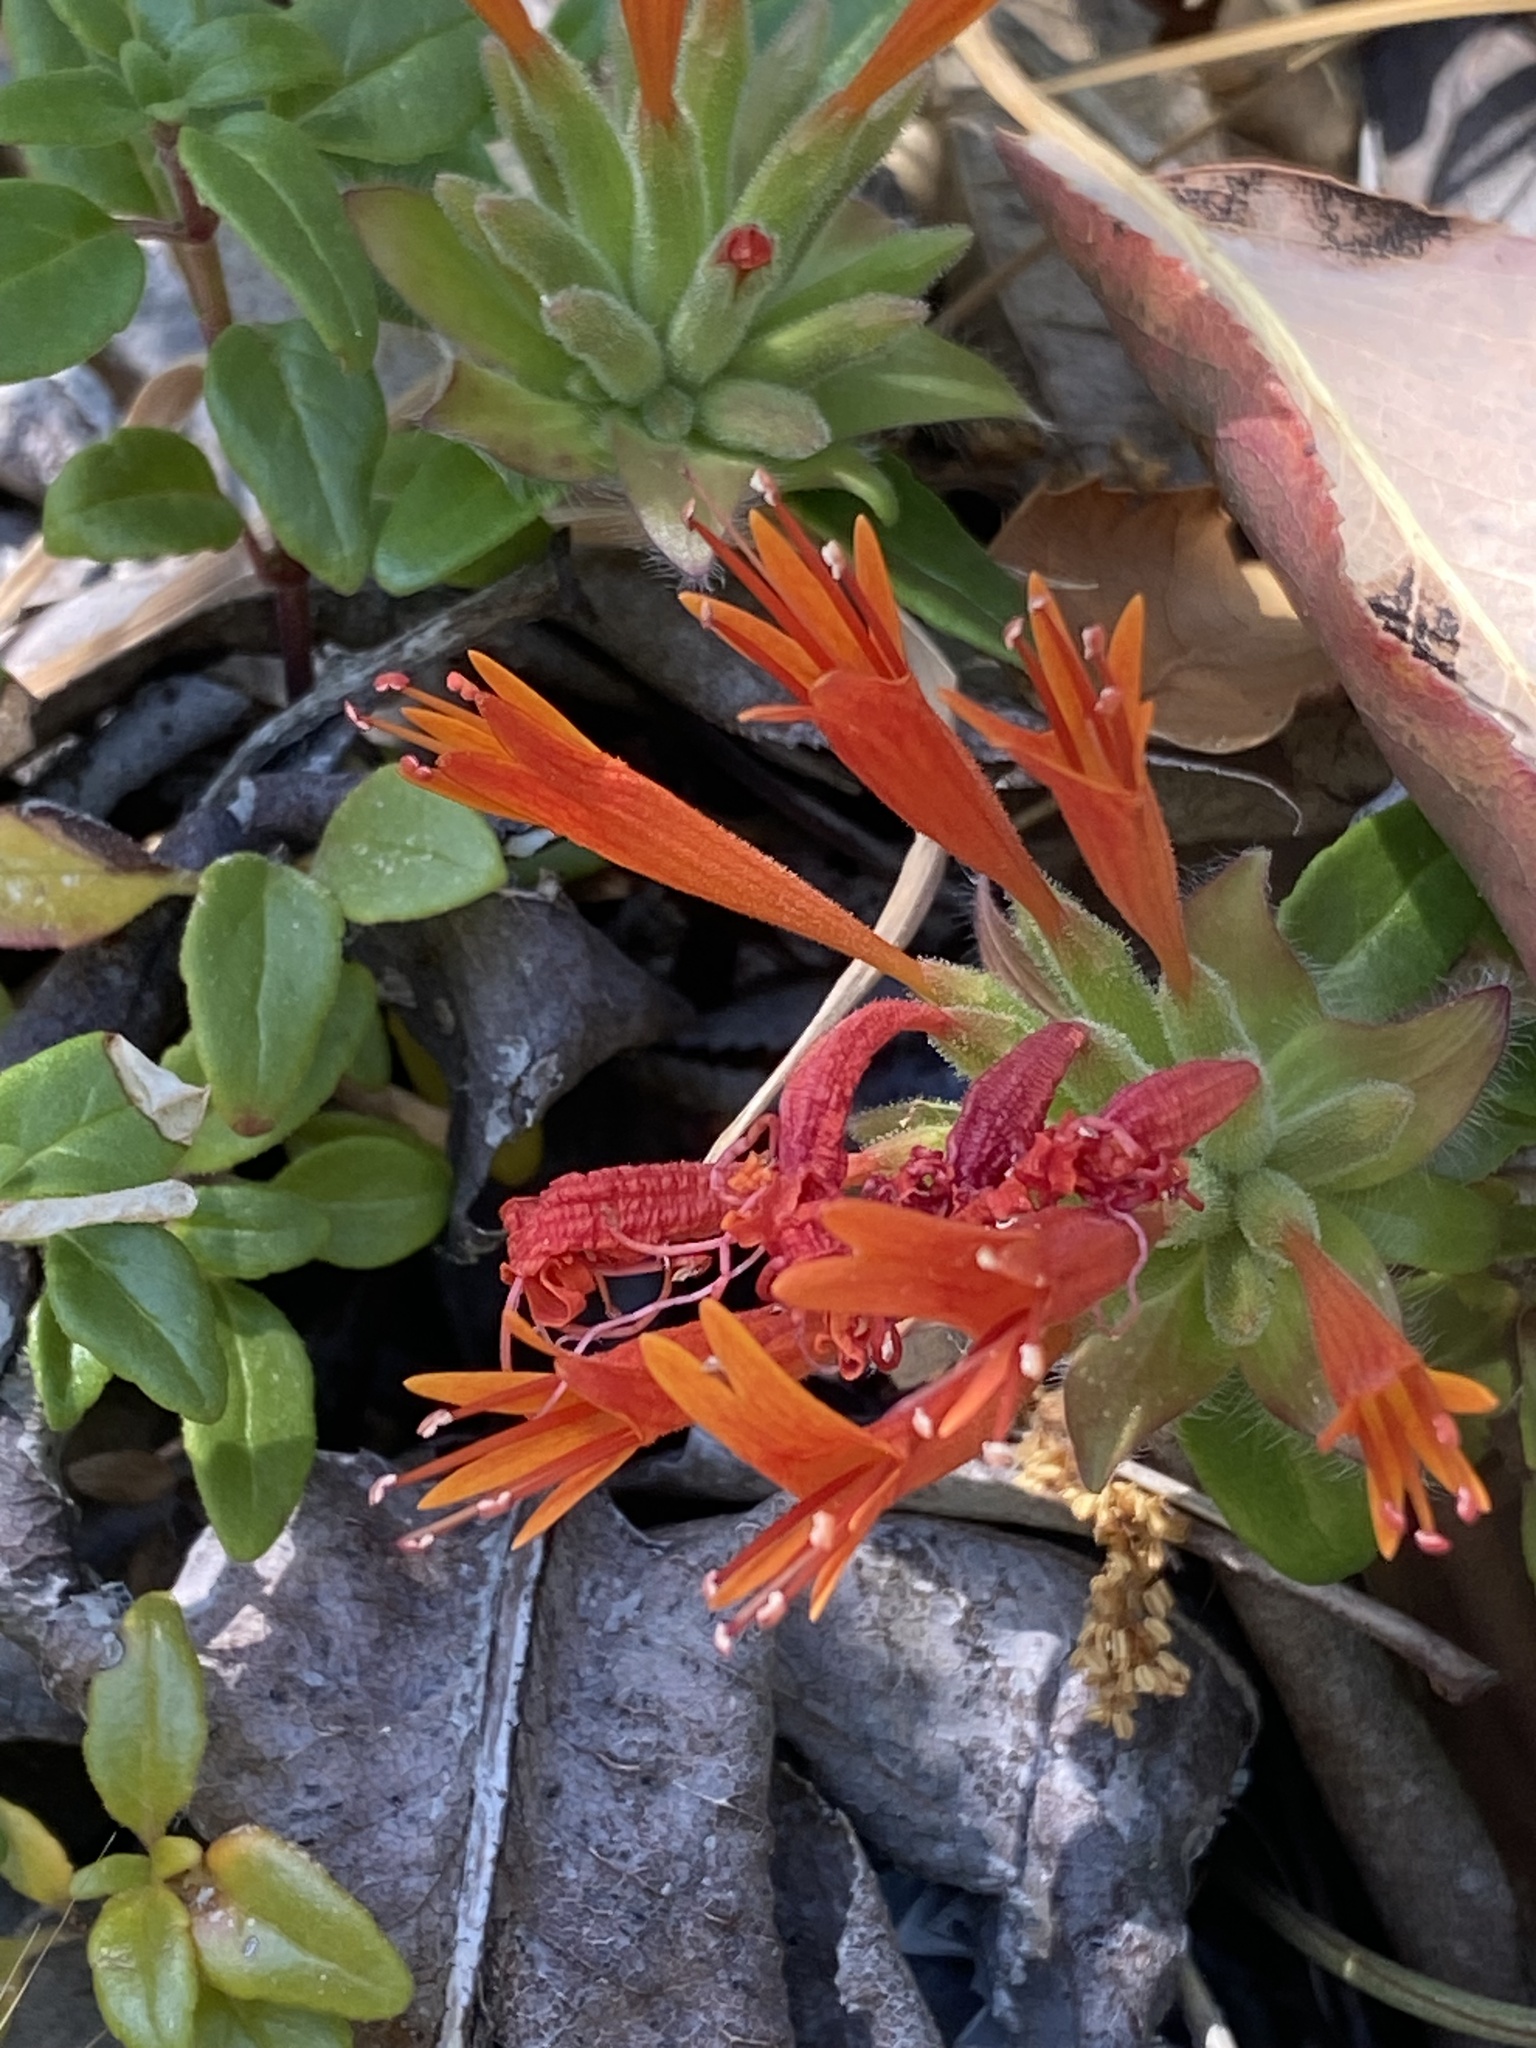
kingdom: Plantae
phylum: Tracheophyta
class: Magnoliopsida
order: Lamiales
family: Lamiaceae
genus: Monardella
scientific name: Monardella macrantha
